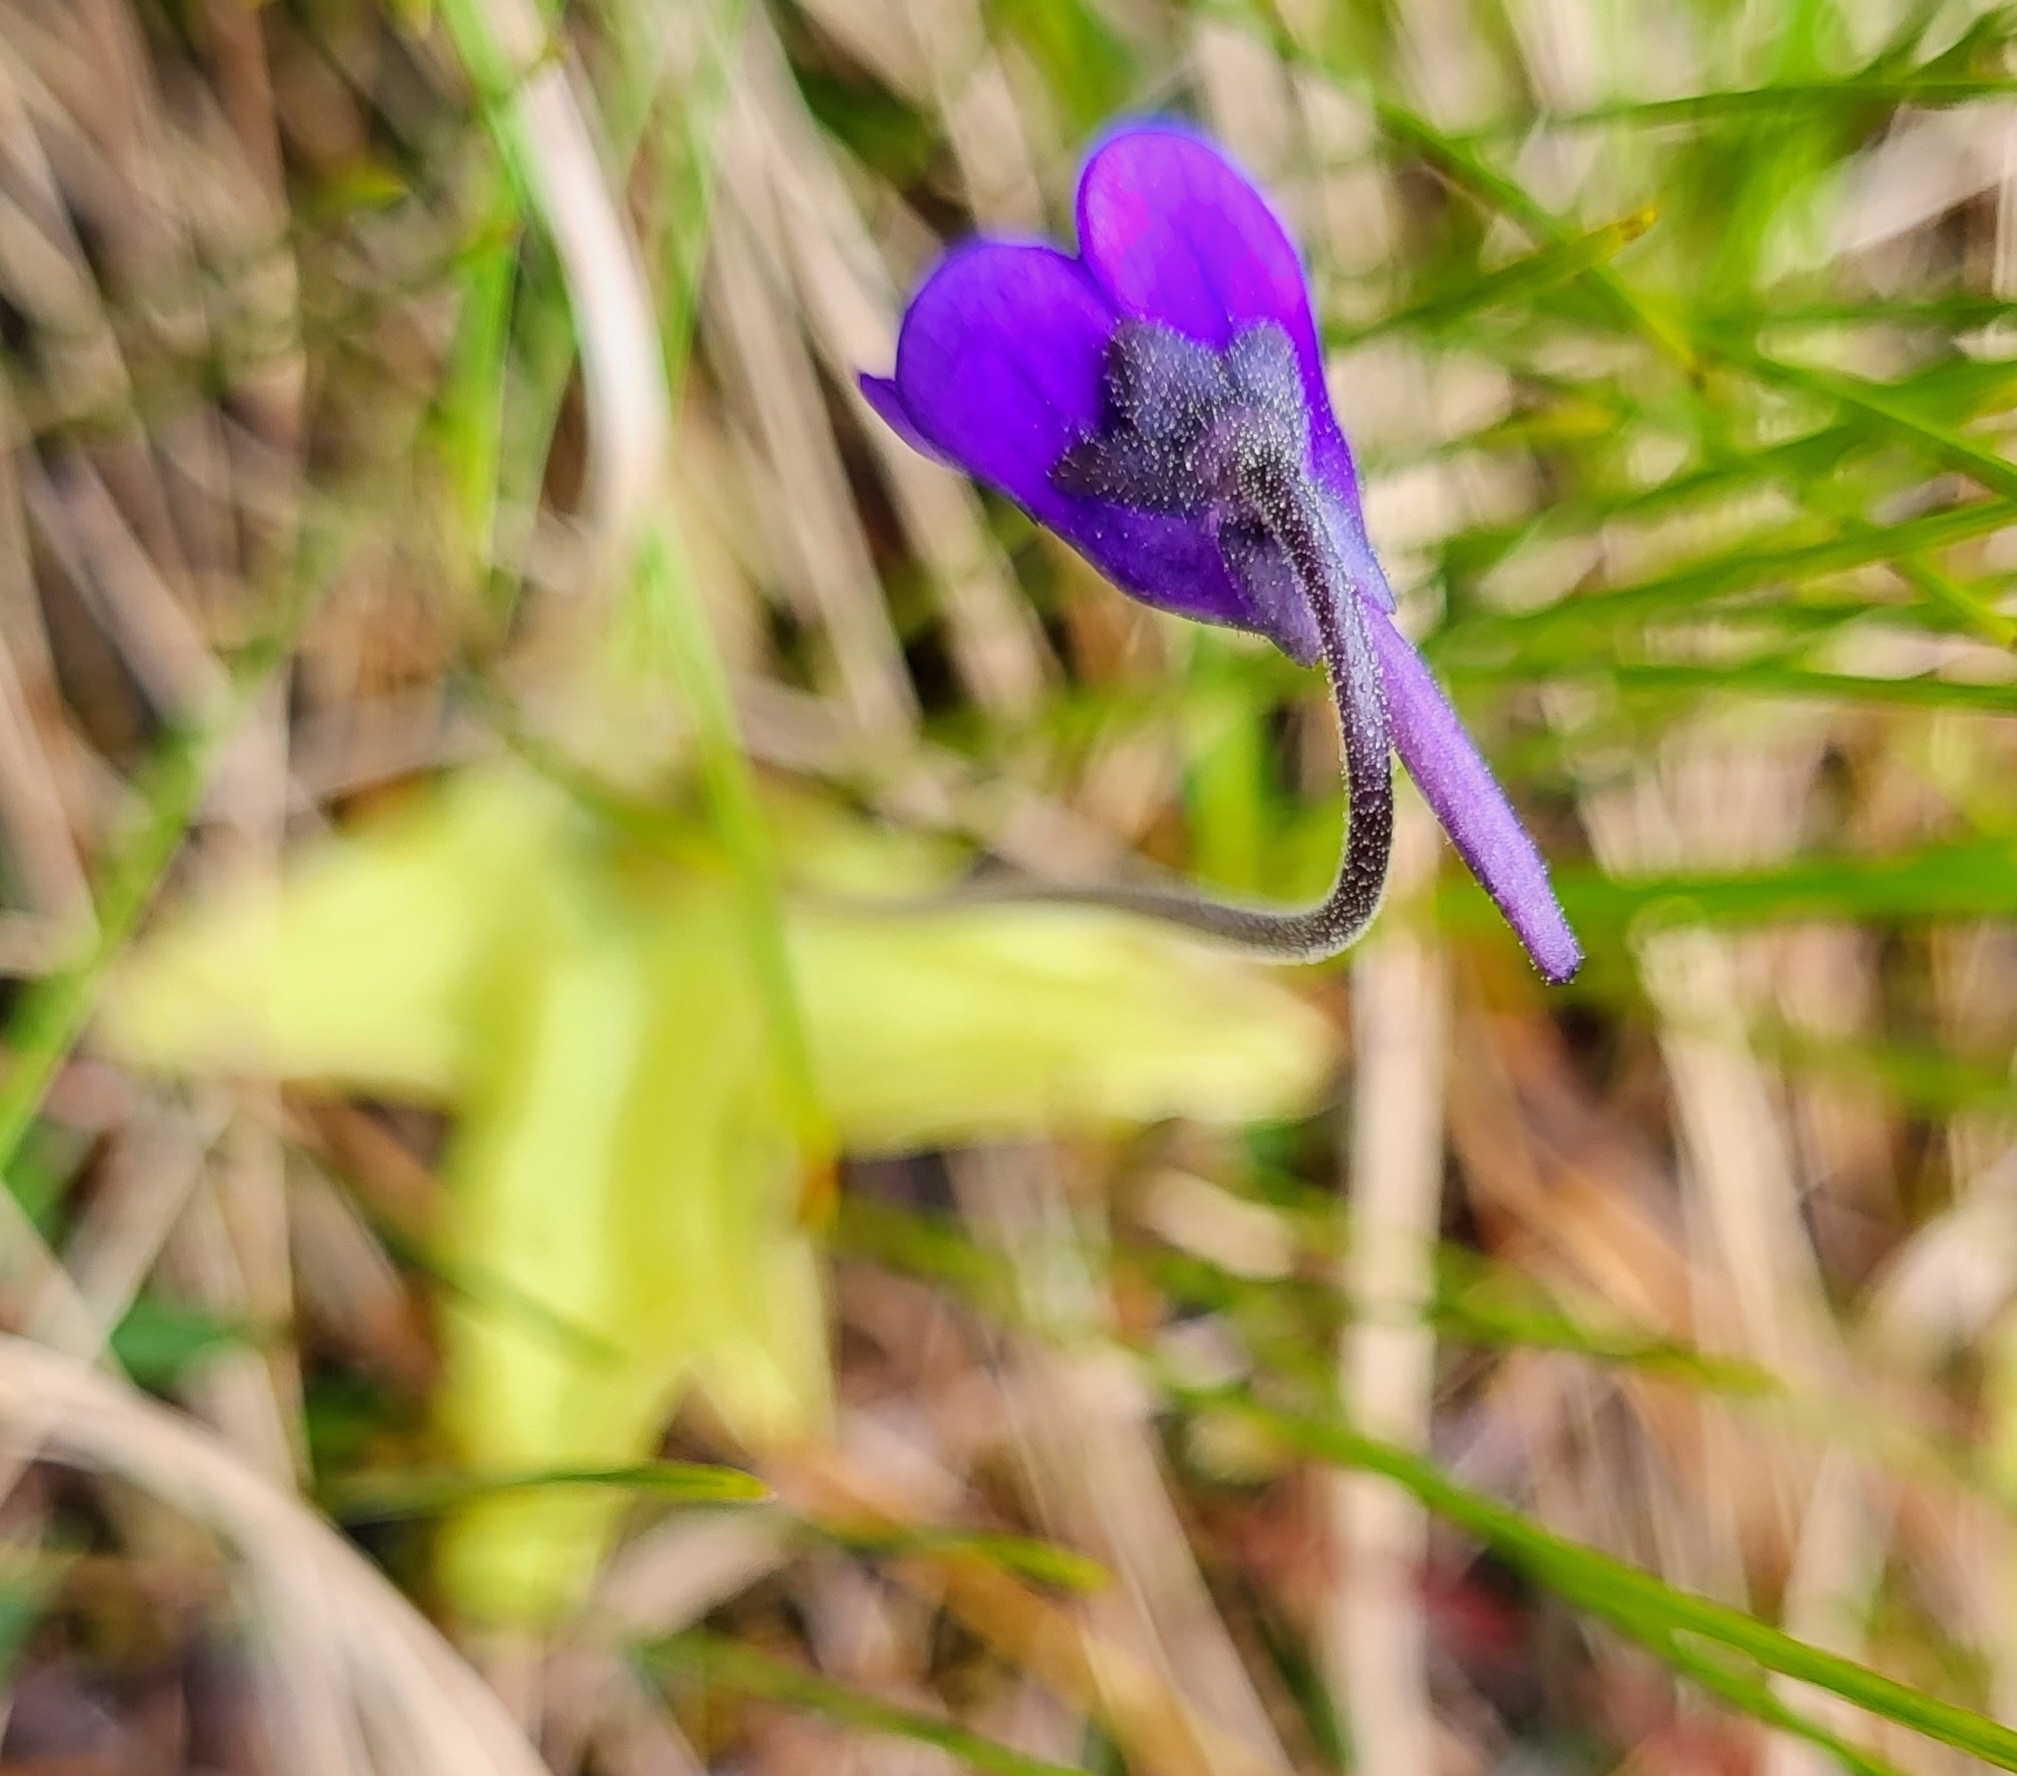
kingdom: Plantae
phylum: Tracheophyta
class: Magnoliopsida
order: Lamiales
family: Lentibulariaceae
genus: Pinguicula
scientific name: Pinguicula vulgaris
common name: Common butterwort
